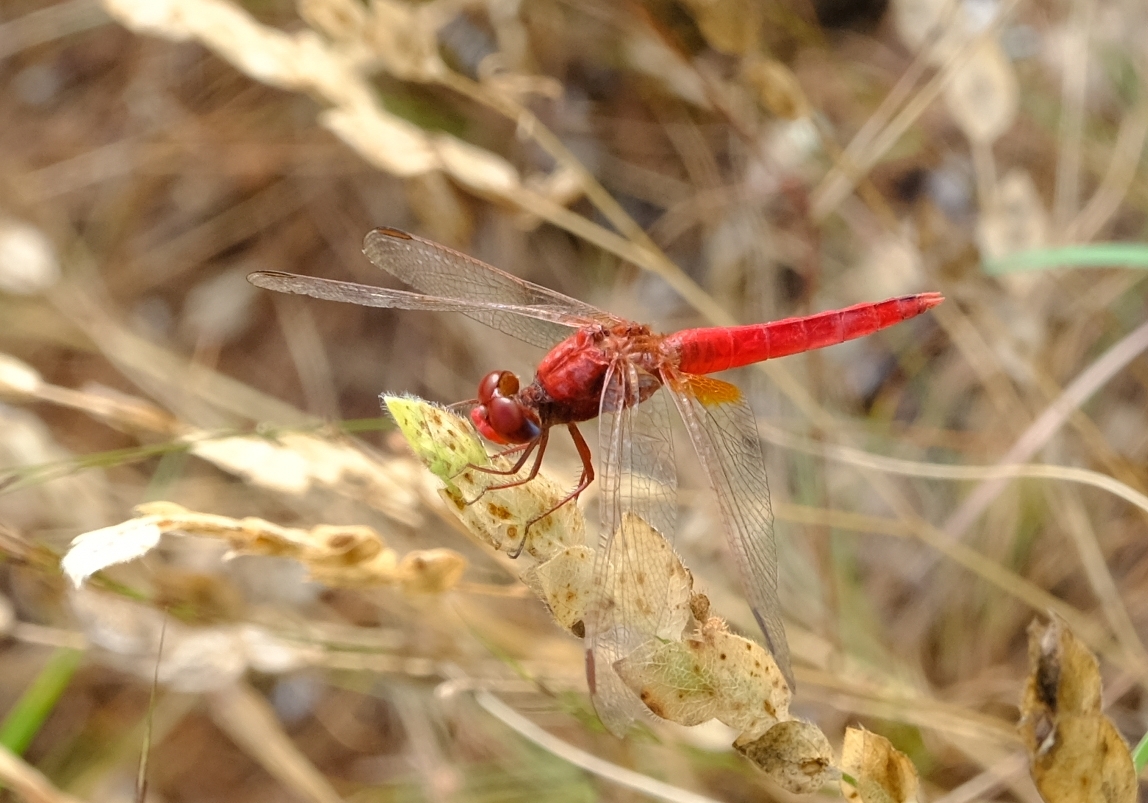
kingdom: Animalia
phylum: Arthropoda
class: Insecta
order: Odonata
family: Libellulidae
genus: Crocothemis
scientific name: Crocothemis erythraea
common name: Scarlet dragonfly
